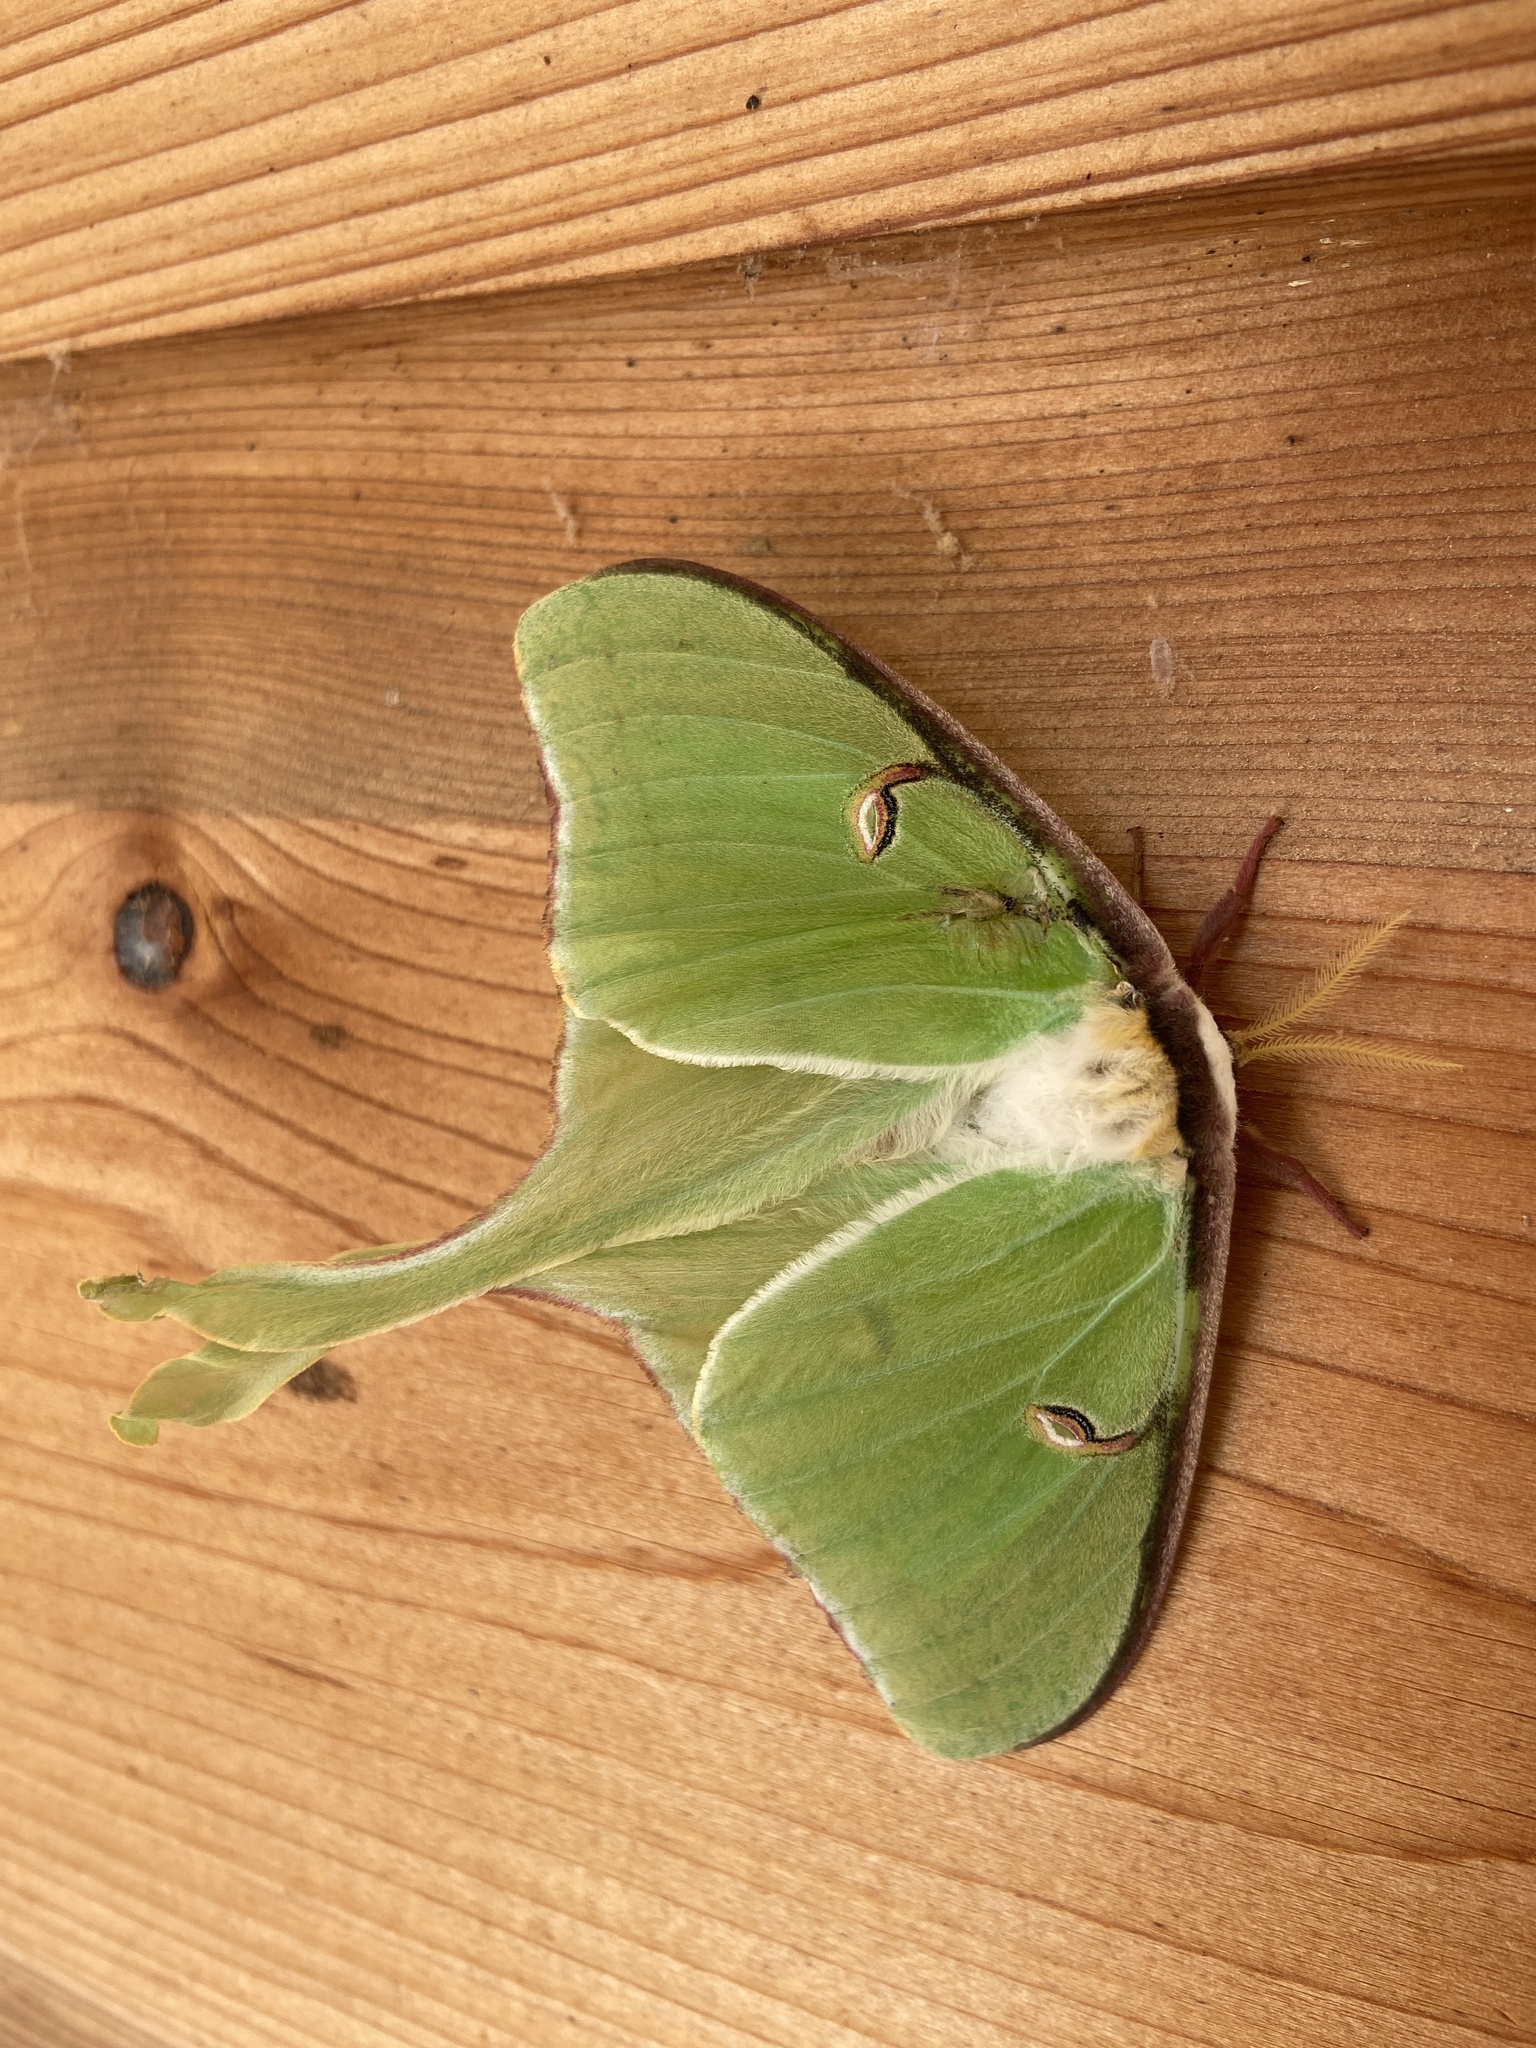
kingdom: Animalia
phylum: Arthropoda
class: Insecta
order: Lepidoptera
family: Saturniidae
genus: Actias
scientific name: Actias luna
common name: Luna moth
